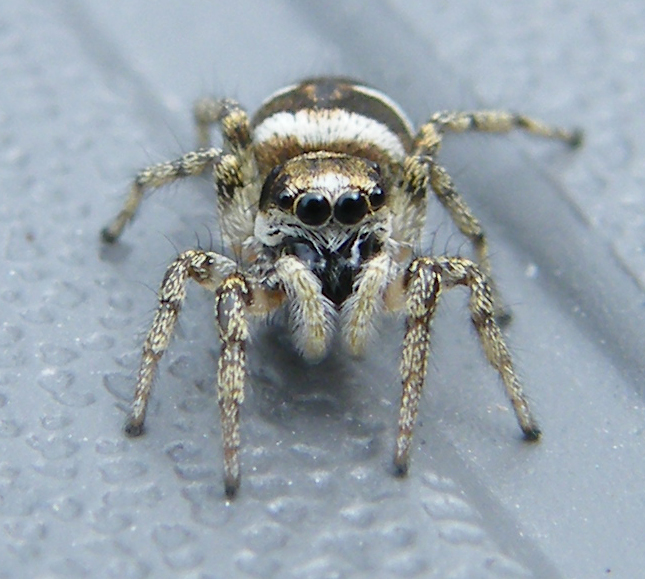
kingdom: Animalia
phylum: Arthropoda
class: Arachnida
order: Araneae
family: Salticidae
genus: Salticus
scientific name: Salticus scenicus
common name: Zebra jumper
